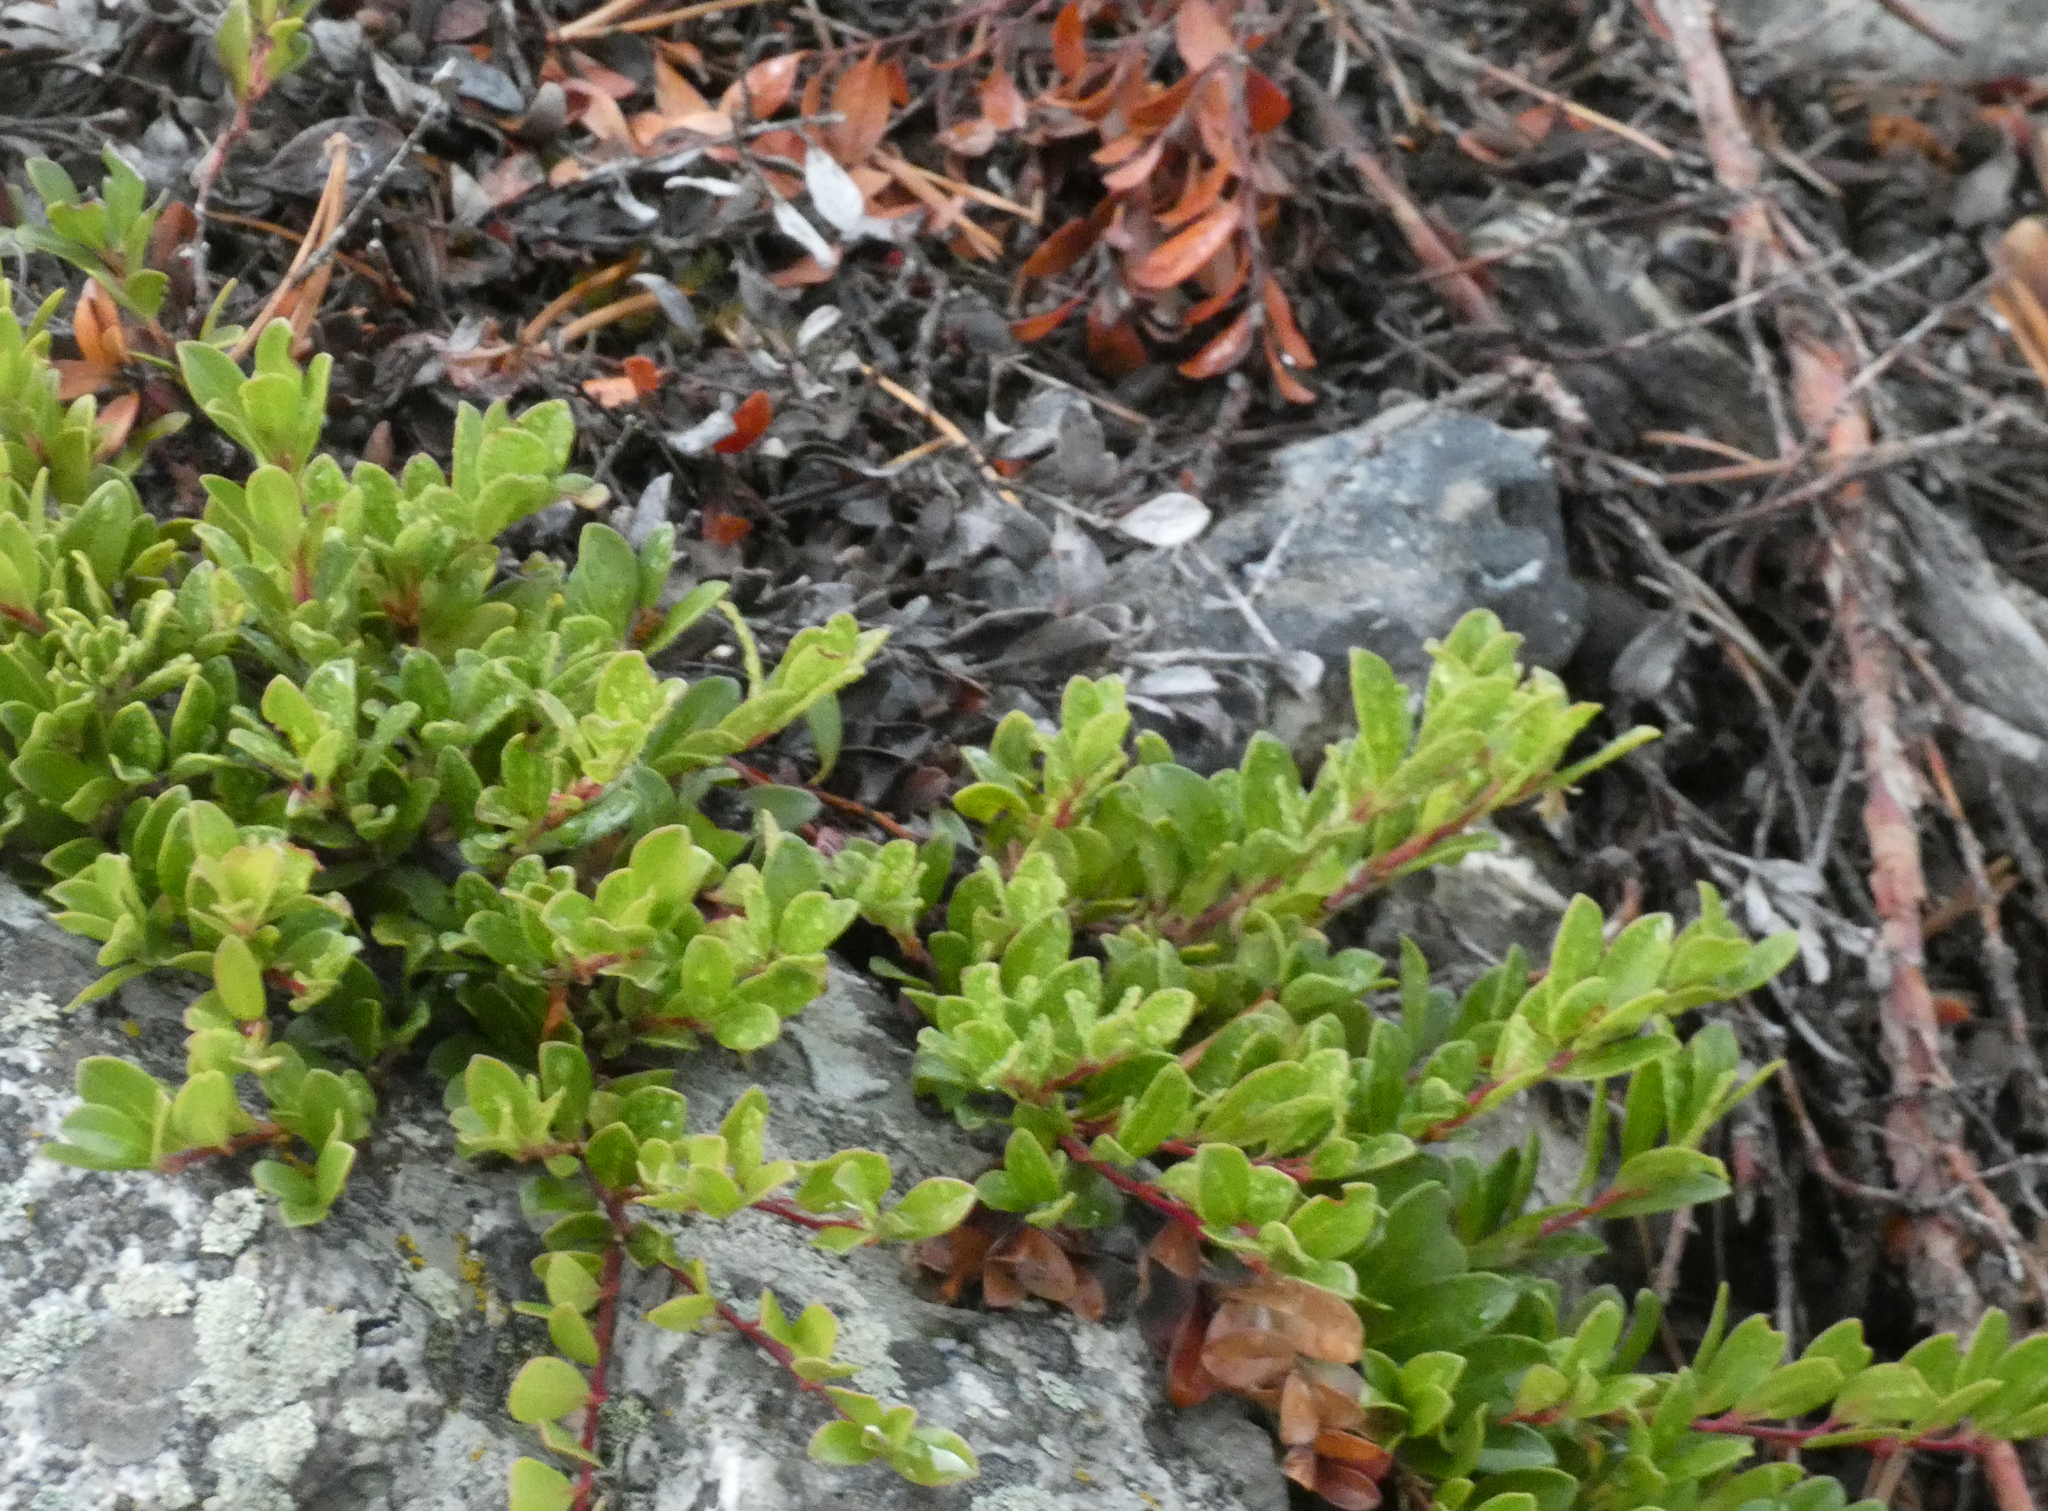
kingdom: Plantae
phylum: Tracheophyta
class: Magnoliopsida
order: Ericales
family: Ericaceae
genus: Arctostaphylos
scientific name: Arctostaphylos uva-ursi
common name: Bearberry
